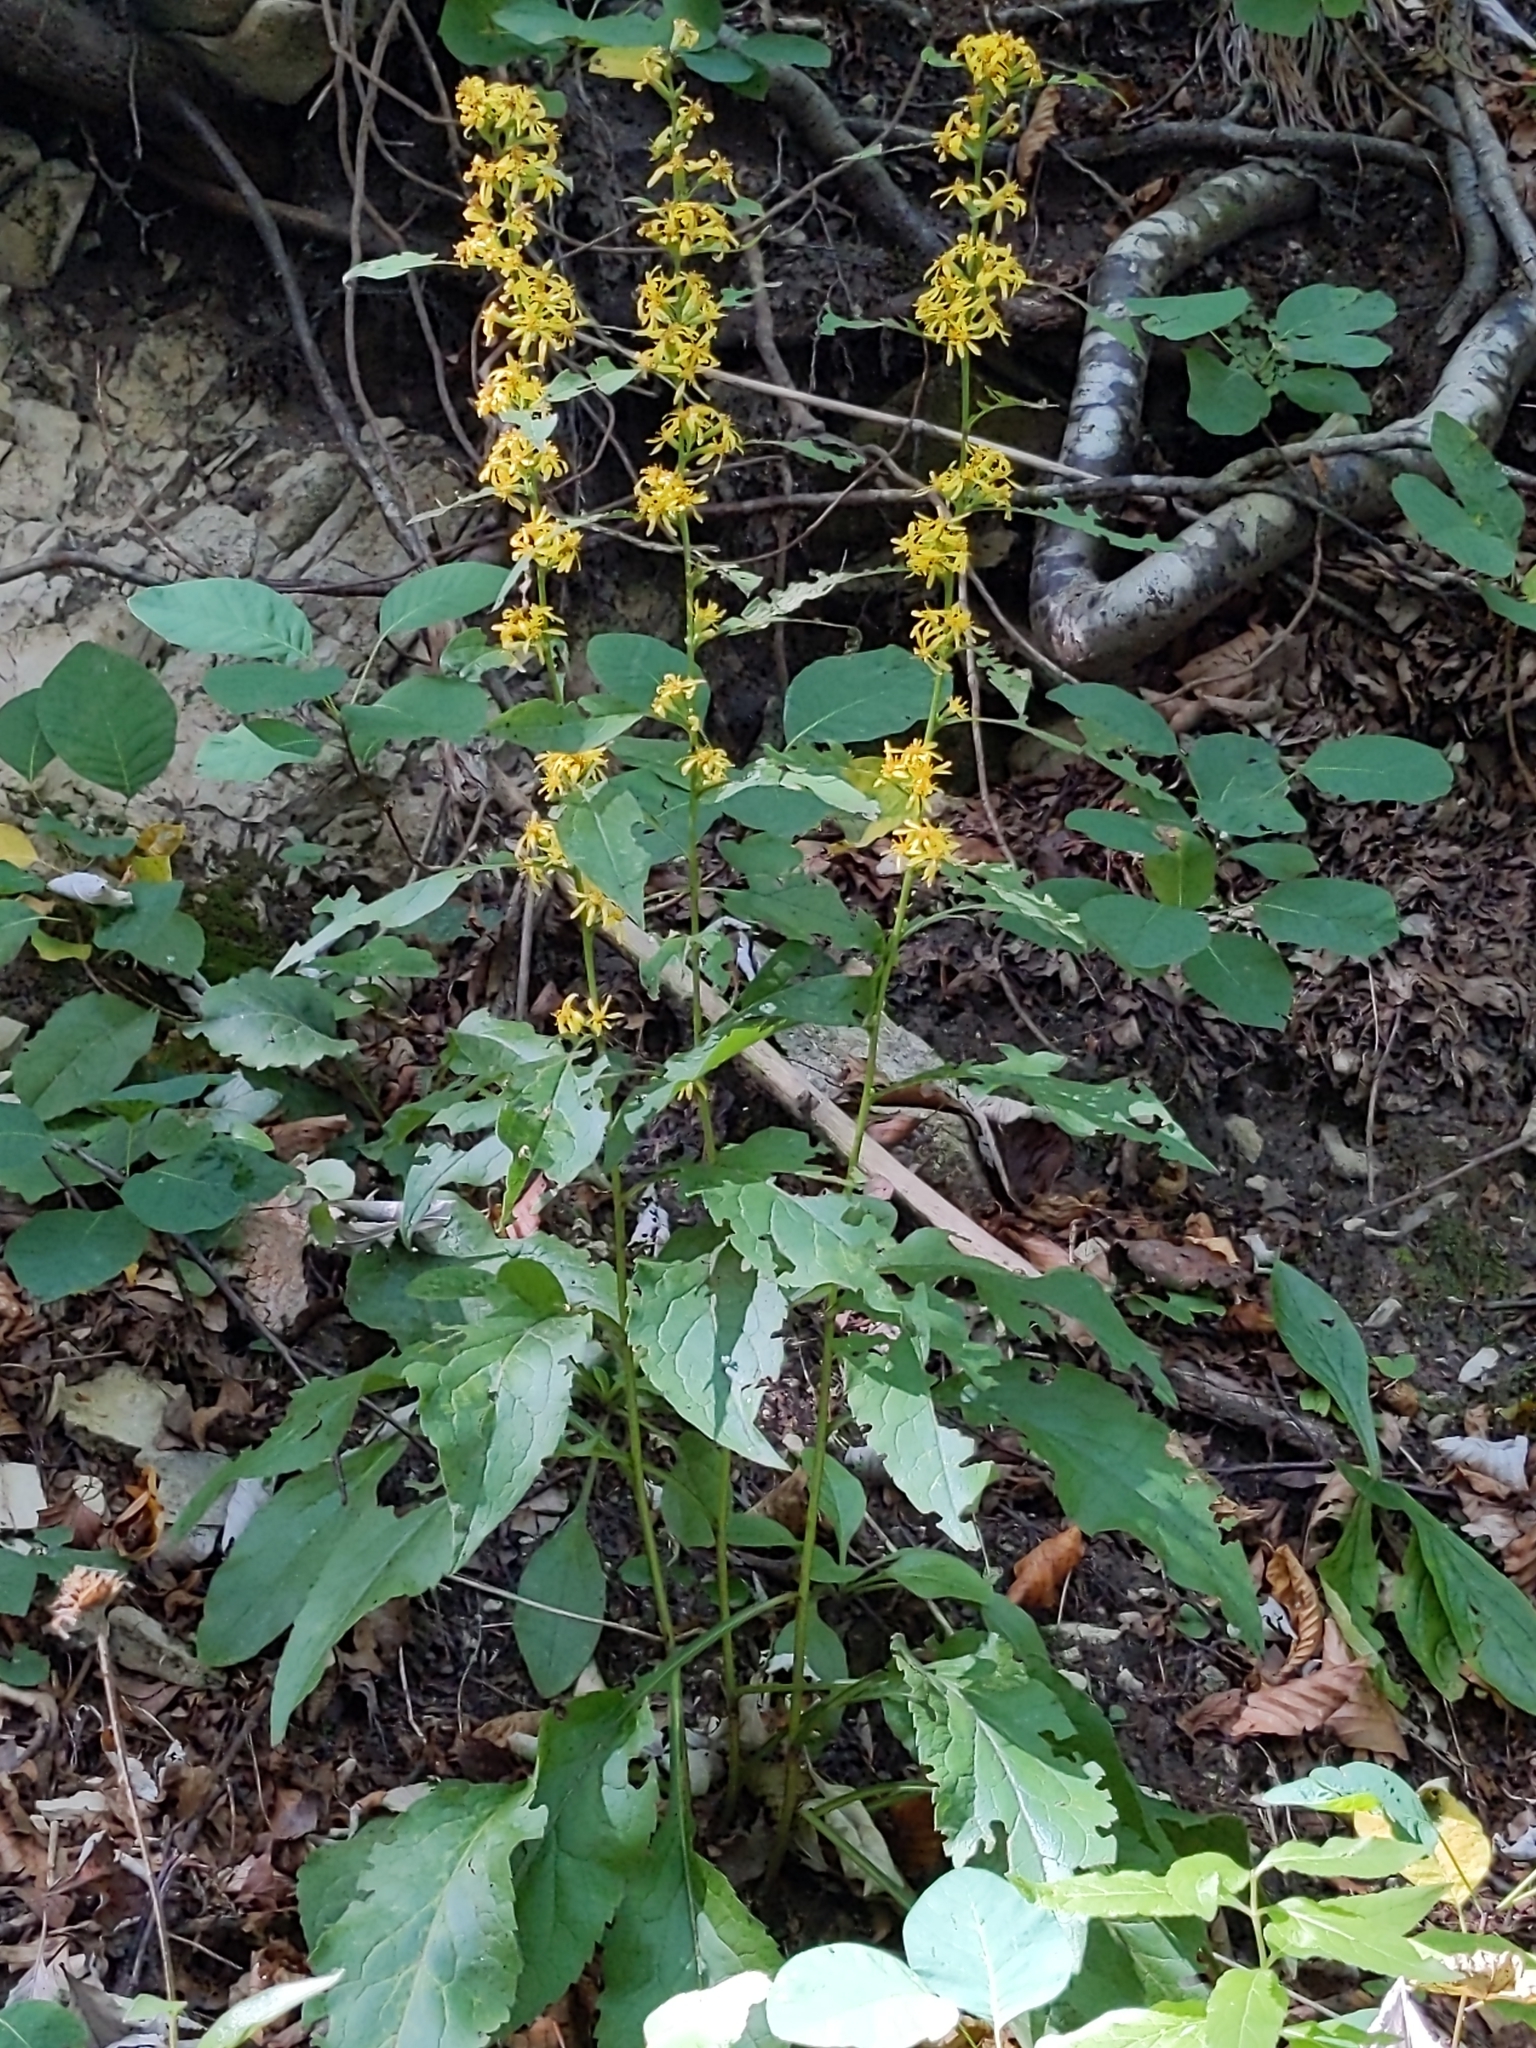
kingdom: Plantae
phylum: Tracheophyta
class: Magnoliopsida
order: Asterales
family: Asteraceae
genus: Solidago
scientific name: Solidago virgaurea
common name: Goldenrod
